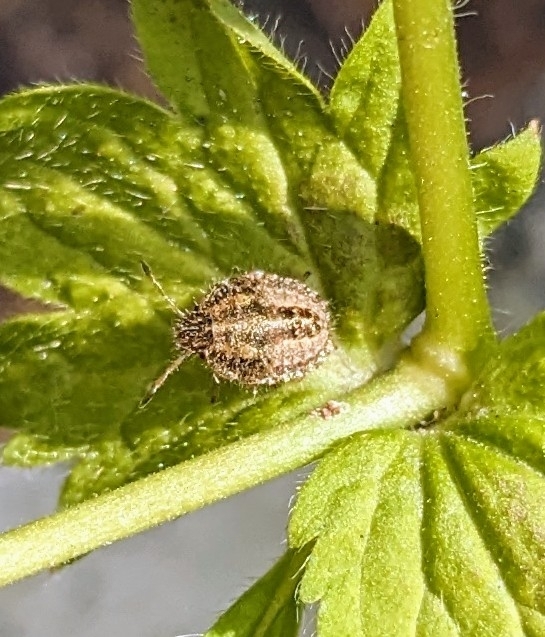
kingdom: Animalia
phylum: Arthropoda
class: Insecta
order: Hemiptera
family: Pentatomidae
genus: Dolycoris
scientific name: Dolycoris baccarum
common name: Sloe bug
